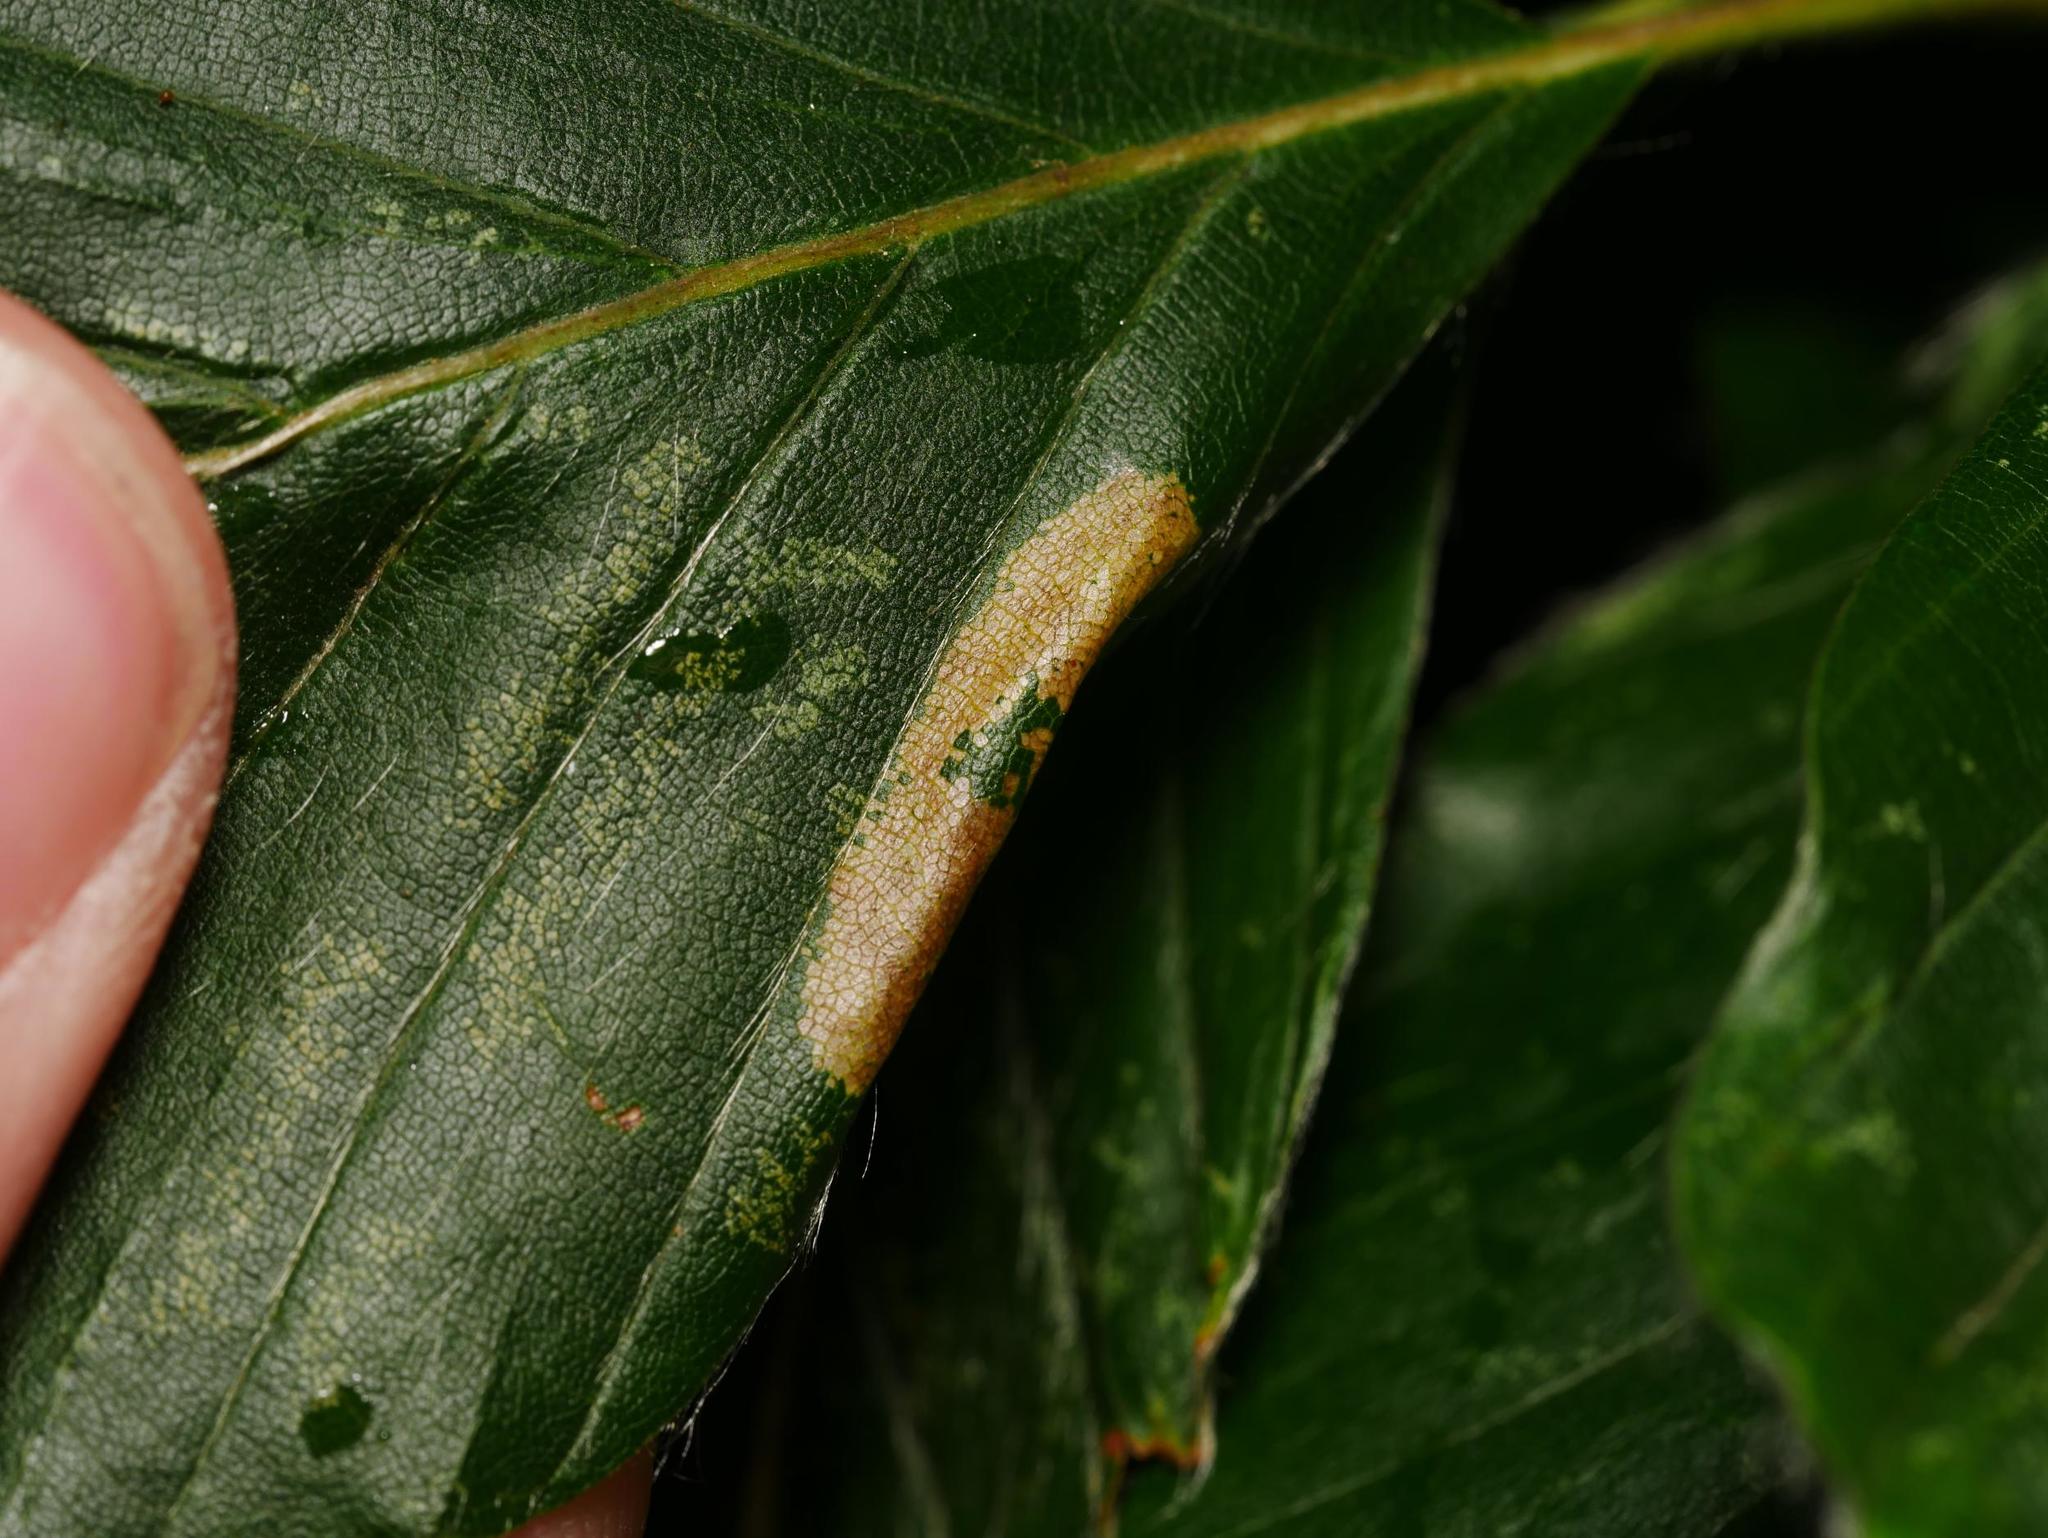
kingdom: Animalia
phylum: Arthropoda
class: Insecta
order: Lepidoptera
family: Gracillariidae
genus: Phyllonorycter
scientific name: Phyllonorycter maestingella
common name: Beech midget
